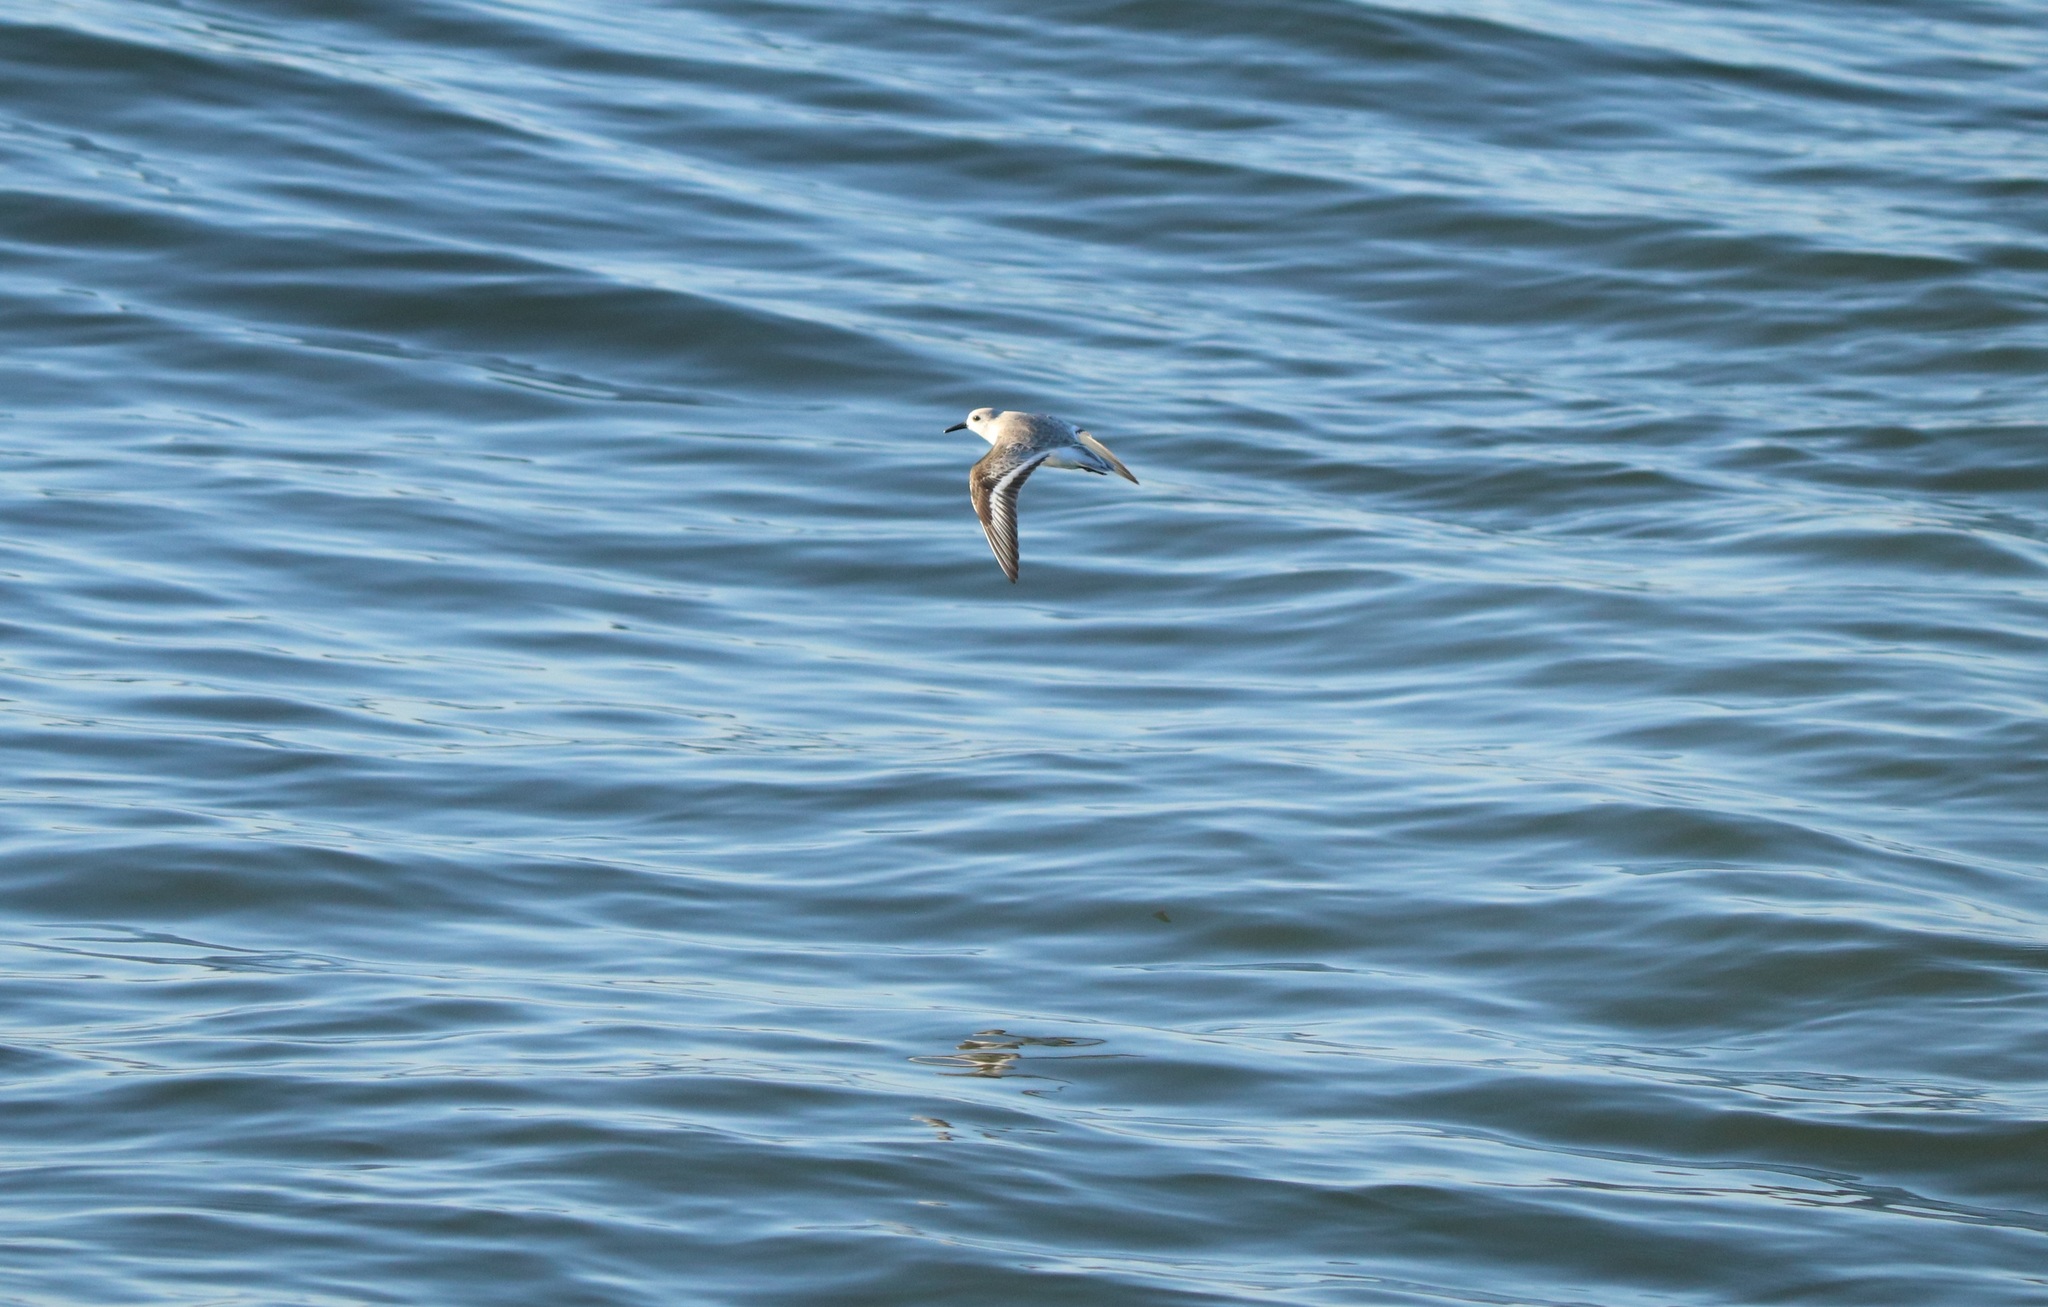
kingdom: Animalia
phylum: Chordata
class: Aves
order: Charadriiformes
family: Scolopacidae
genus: Calidris
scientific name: Calidris alba
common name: Sanderling
